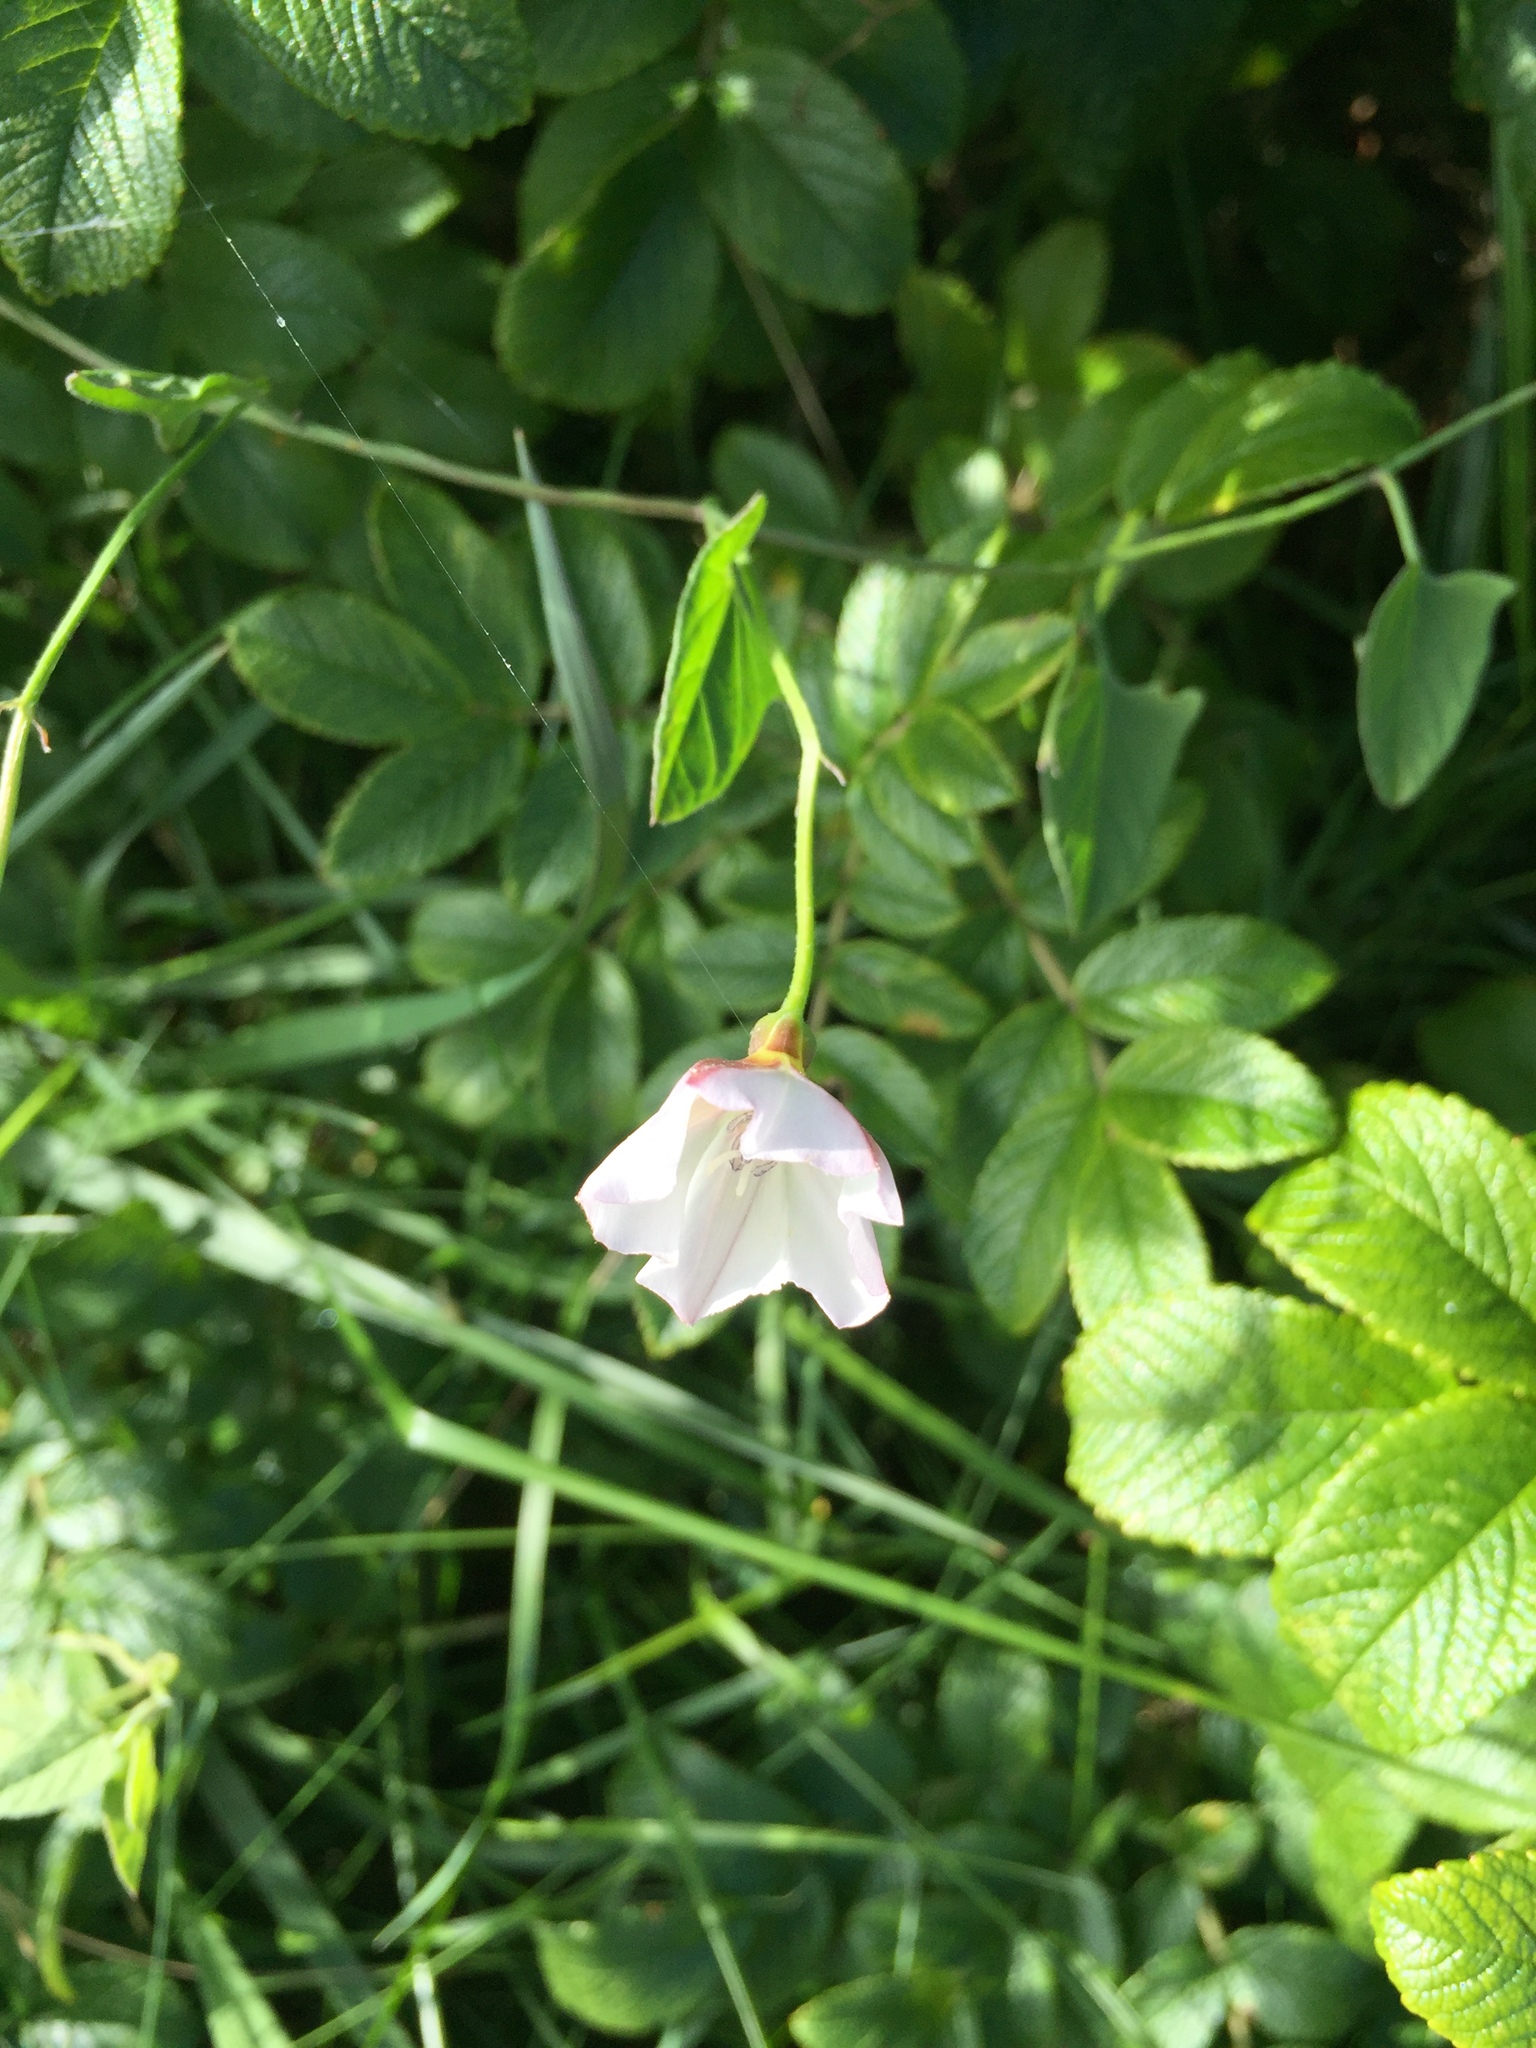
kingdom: Plantae
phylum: Tracheophyta
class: Magnoliopsida
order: Solanales
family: Convolvulaceae
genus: Convolvulus
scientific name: Convolvulus arvensis
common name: Field bindweed
